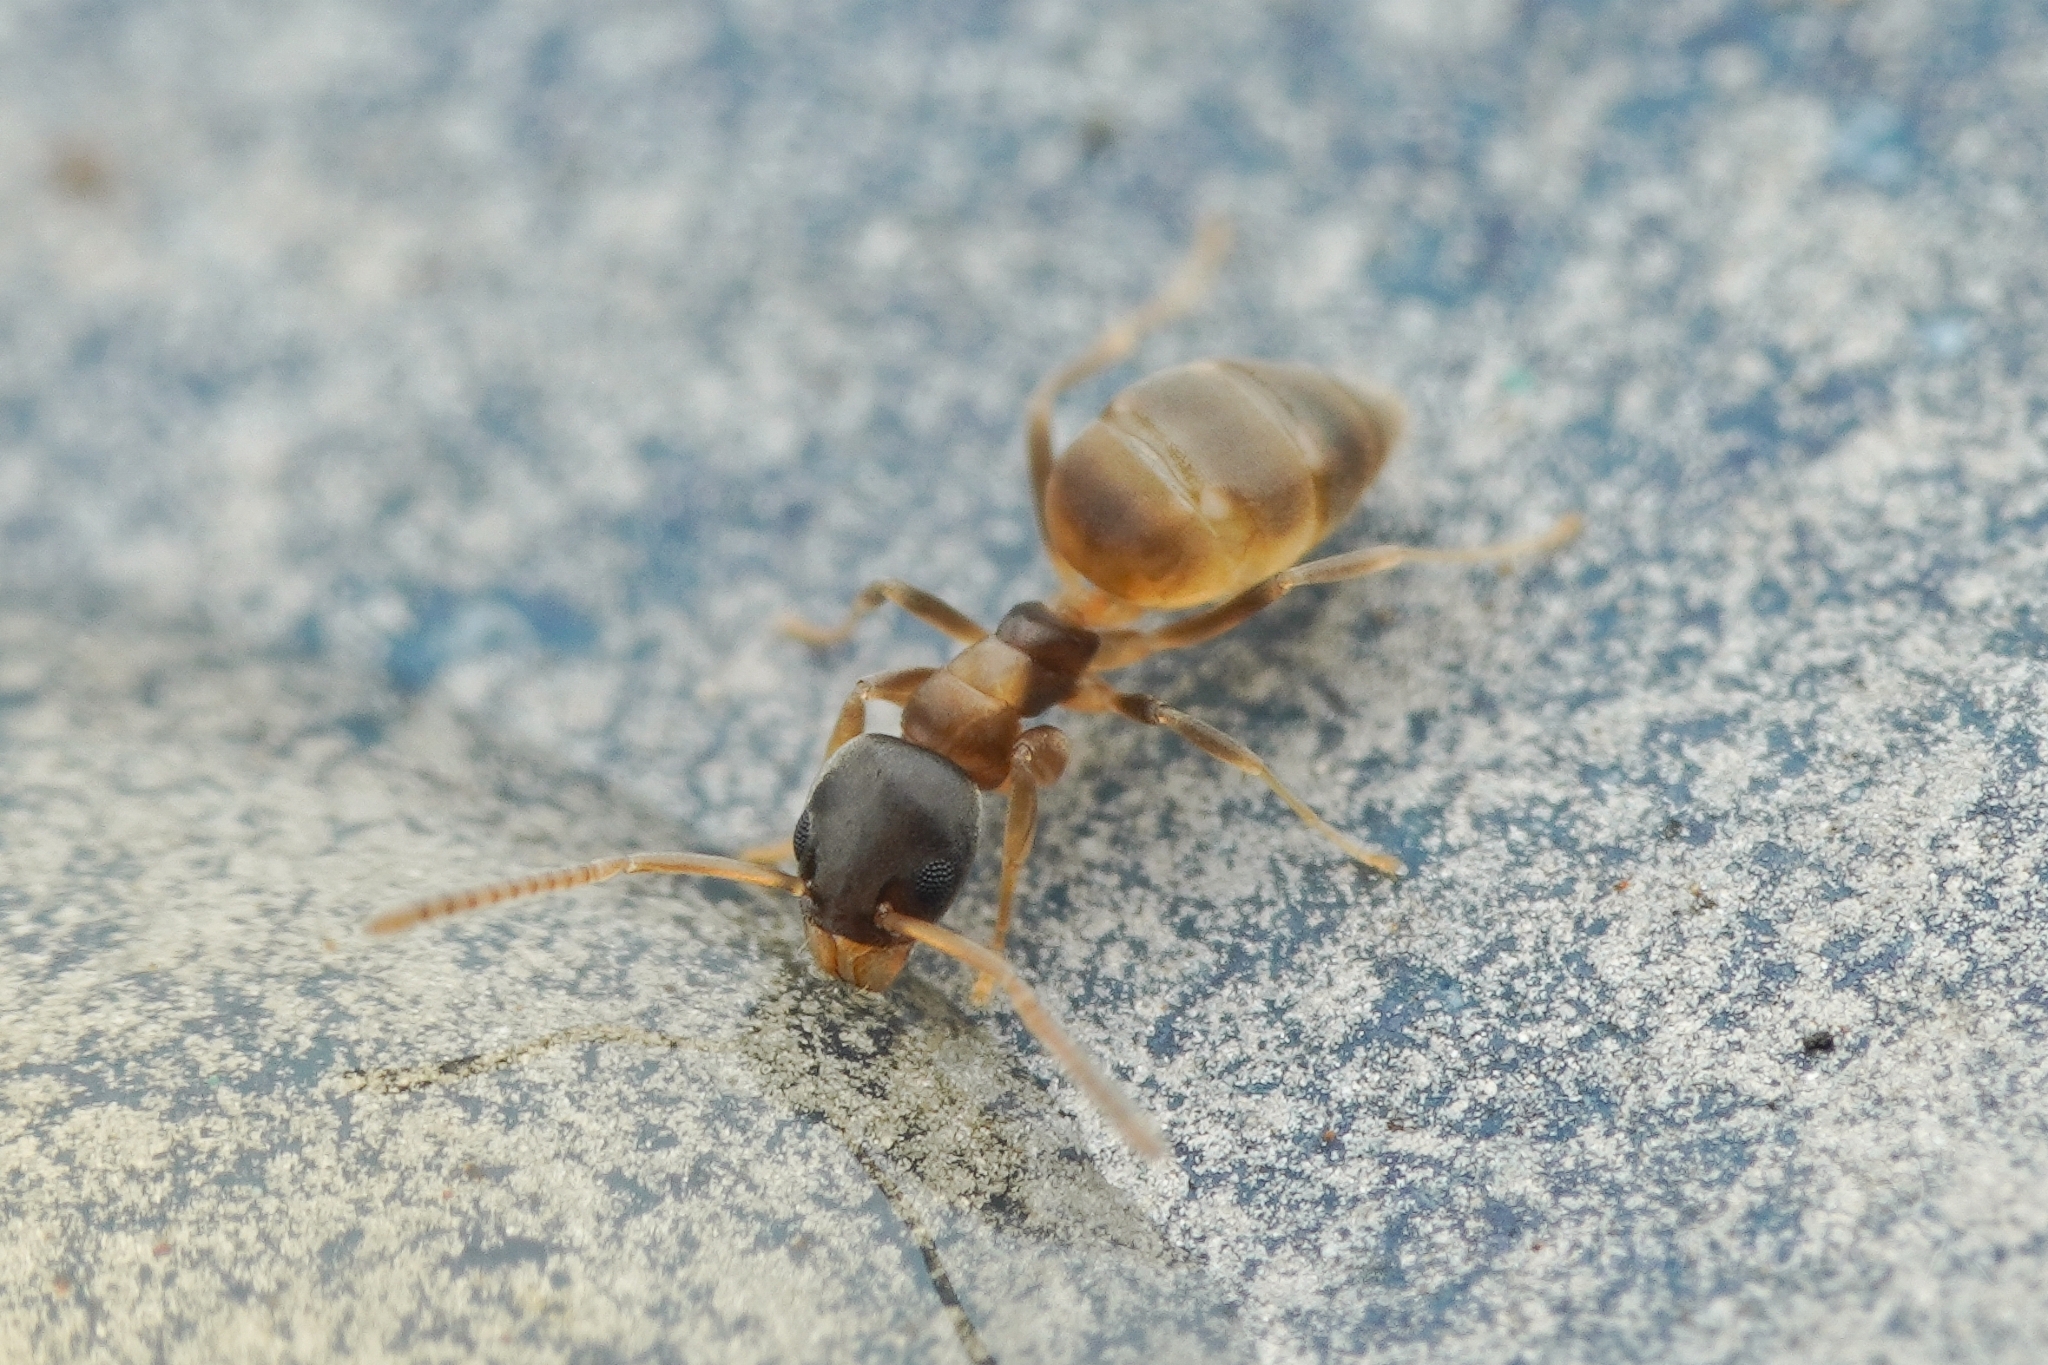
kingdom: Animalia
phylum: Arthropoda
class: Insecta
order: Hymenoptera
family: Formicidae
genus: Tapinoma
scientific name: Tapinoma melanocephalum
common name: Ghost ant
